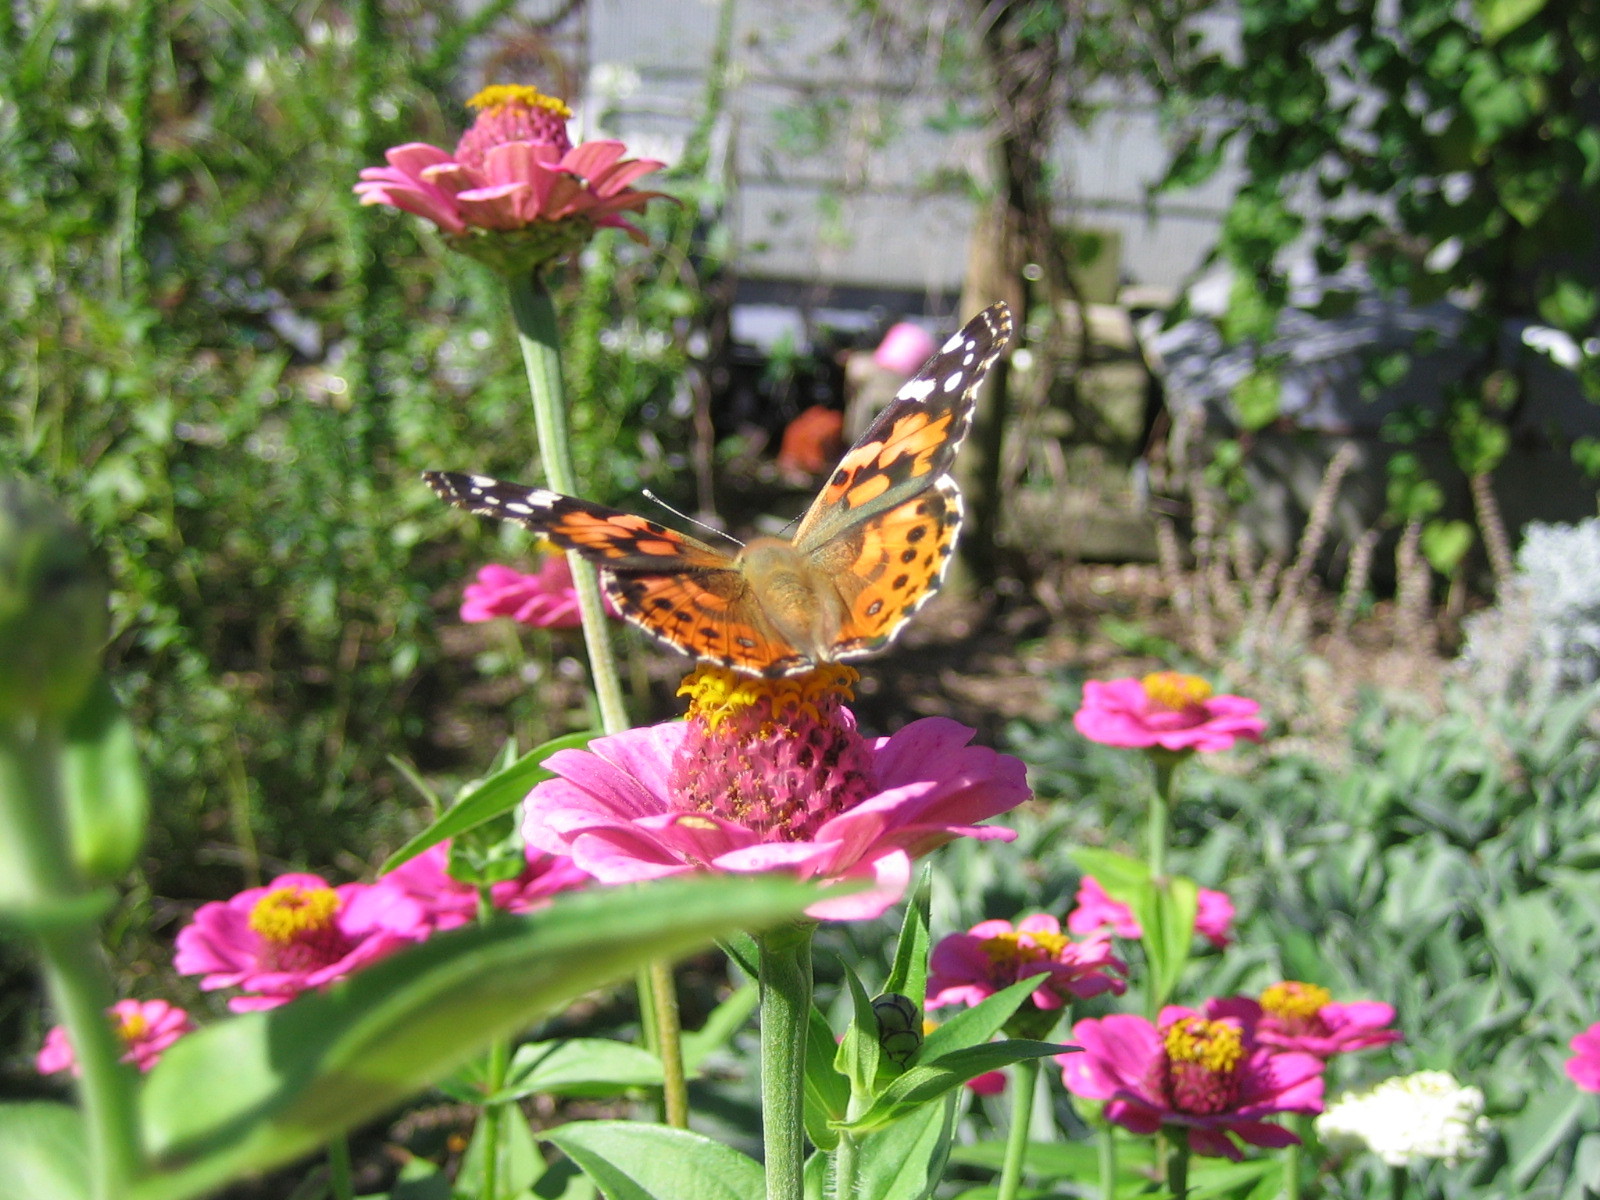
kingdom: Animalia
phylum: Arthropoda
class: Insecta
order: Lepidoptera
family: Nymphalidae
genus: Vanessa
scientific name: Vanessa cardui
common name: Painted lady
